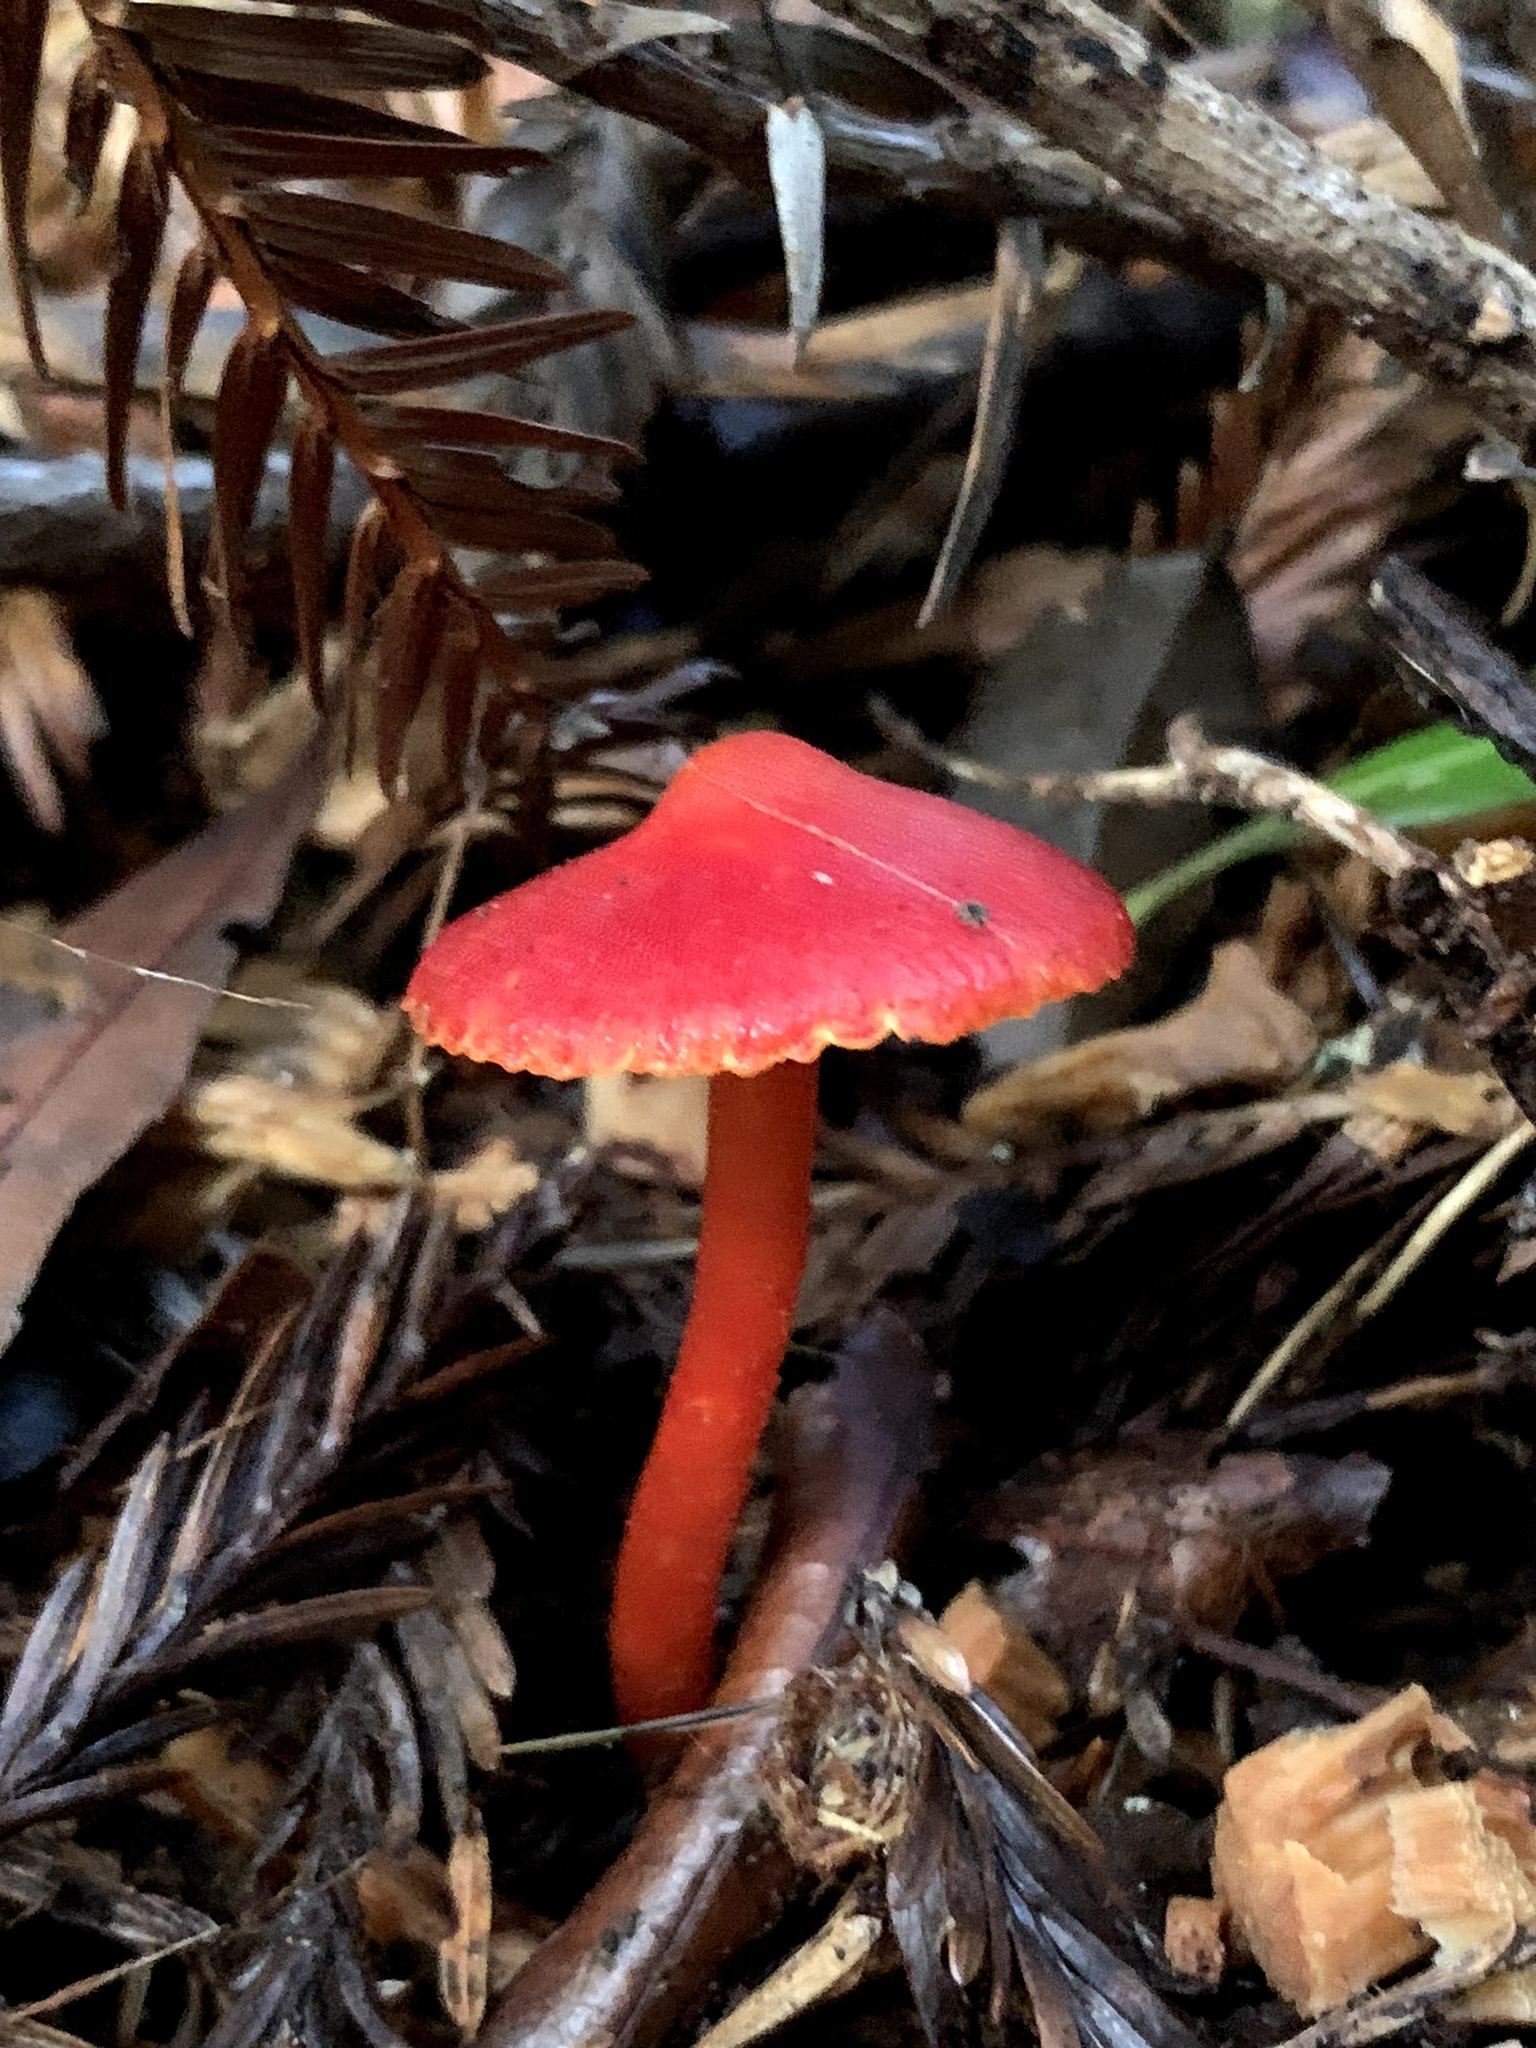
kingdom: Fungi
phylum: Basidiomycota
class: Agaricomycetes
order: Agaricales
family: Hygrophoraceae
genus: Hygrocybe
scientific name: Hygrocybe coccinea
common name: Scarlet hood
